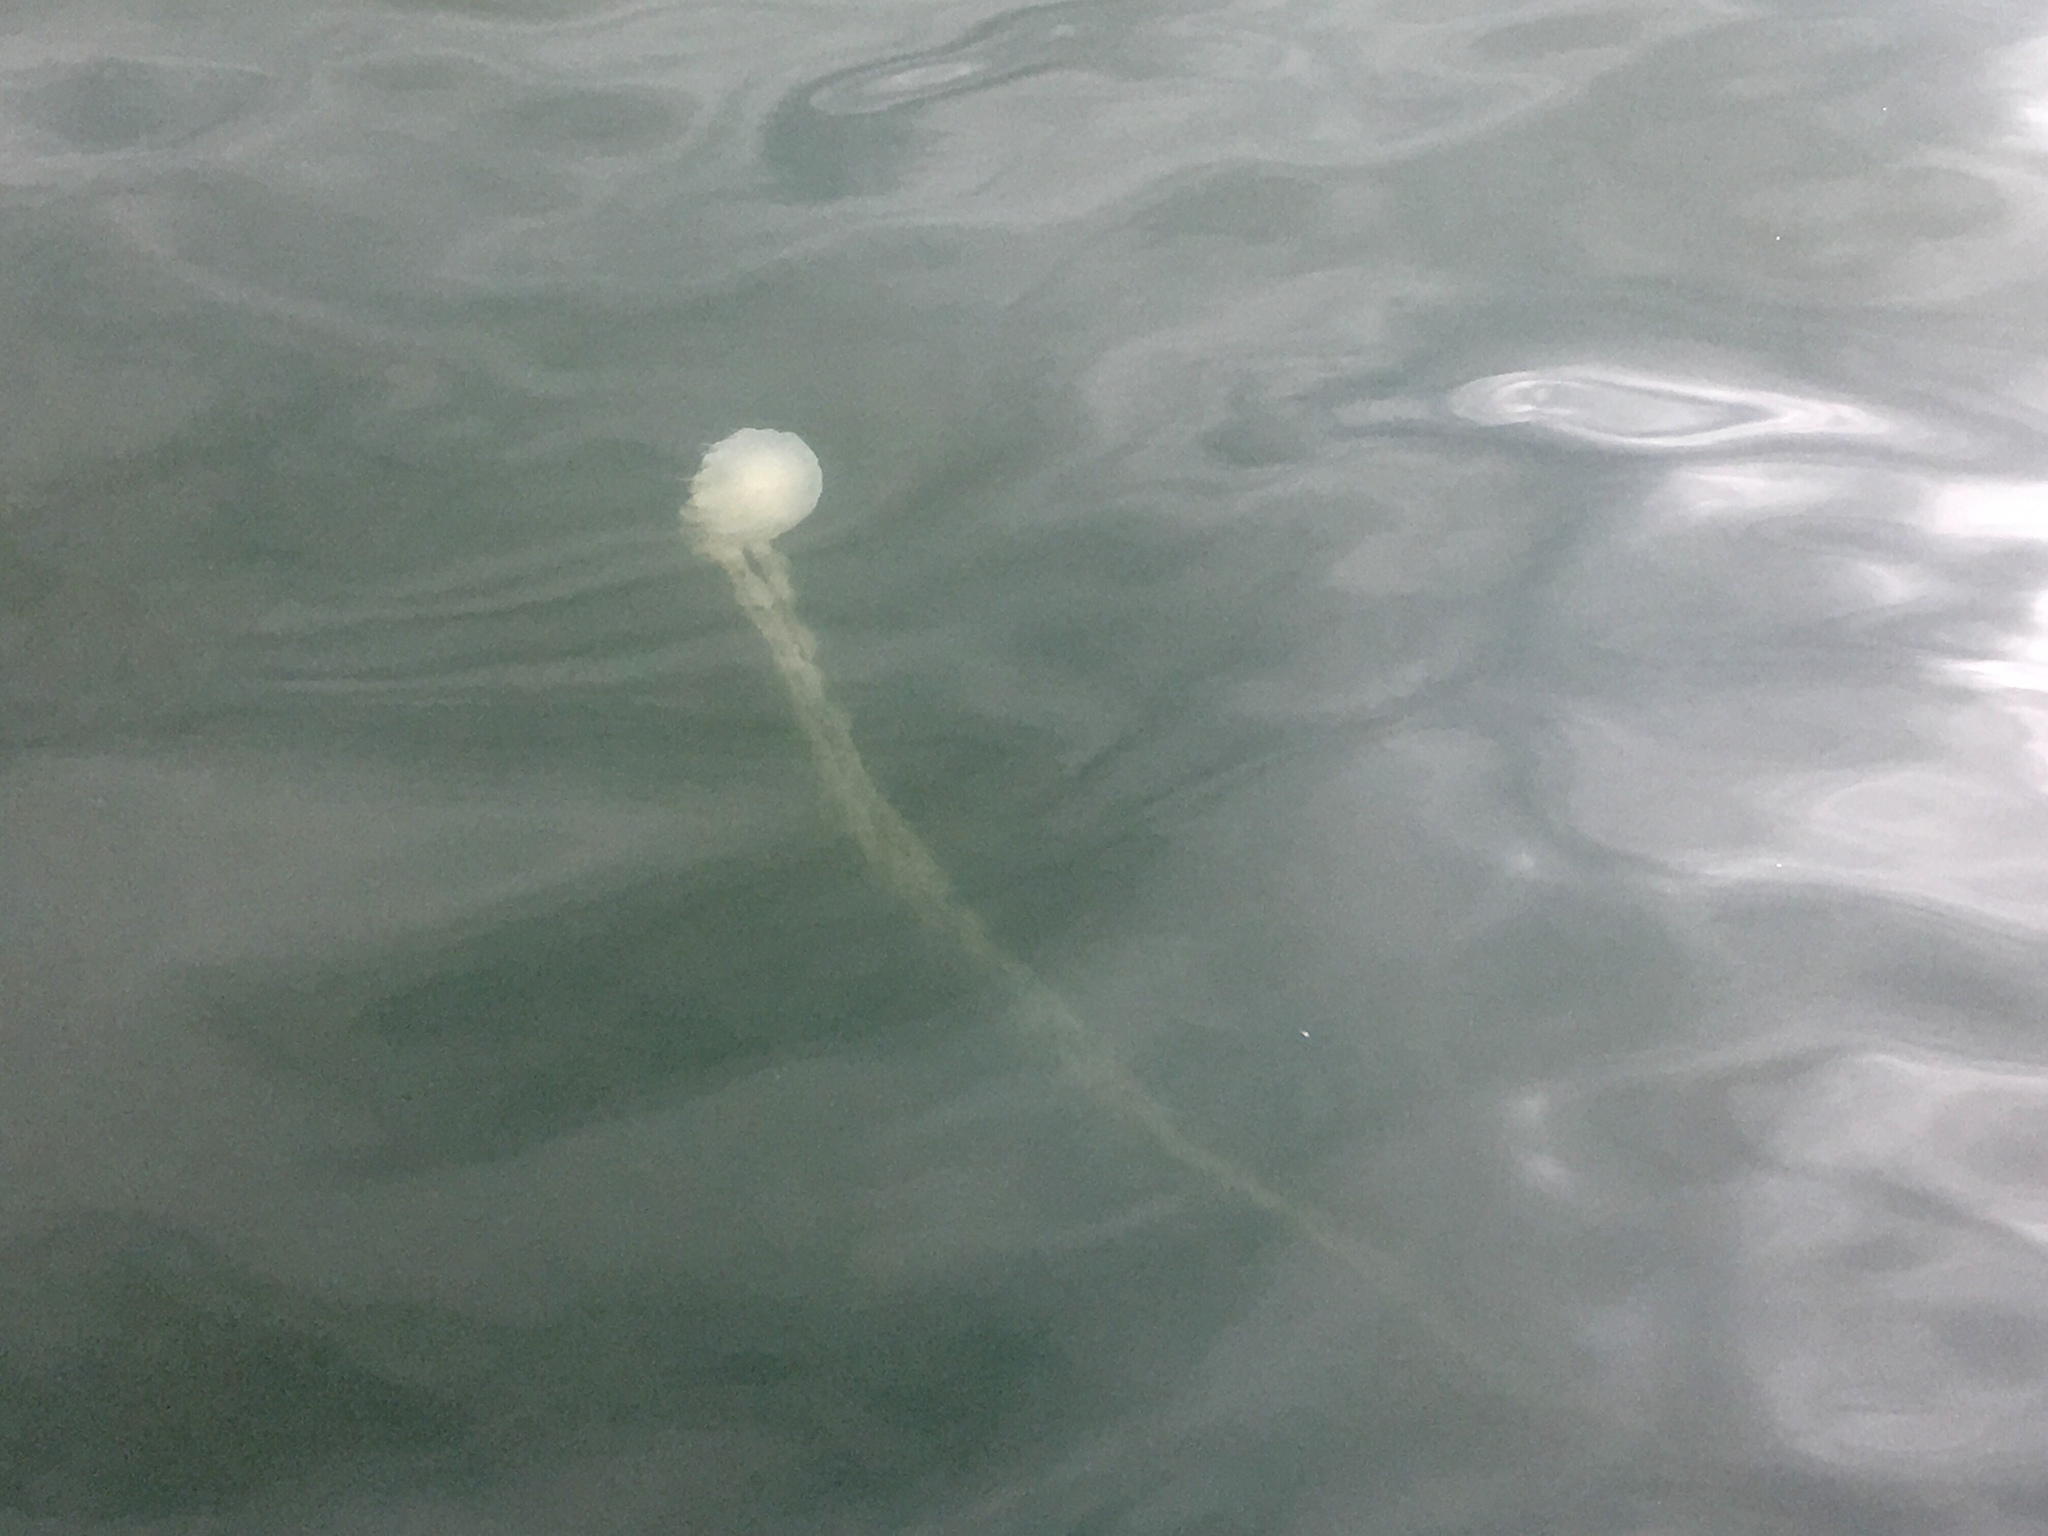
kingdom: Animalia
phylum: Cnidaria
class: Scyphozoa
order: Semaeostomeae
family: Pelagiidae
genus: Chrysaora
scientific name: Chrysaora chinensis
